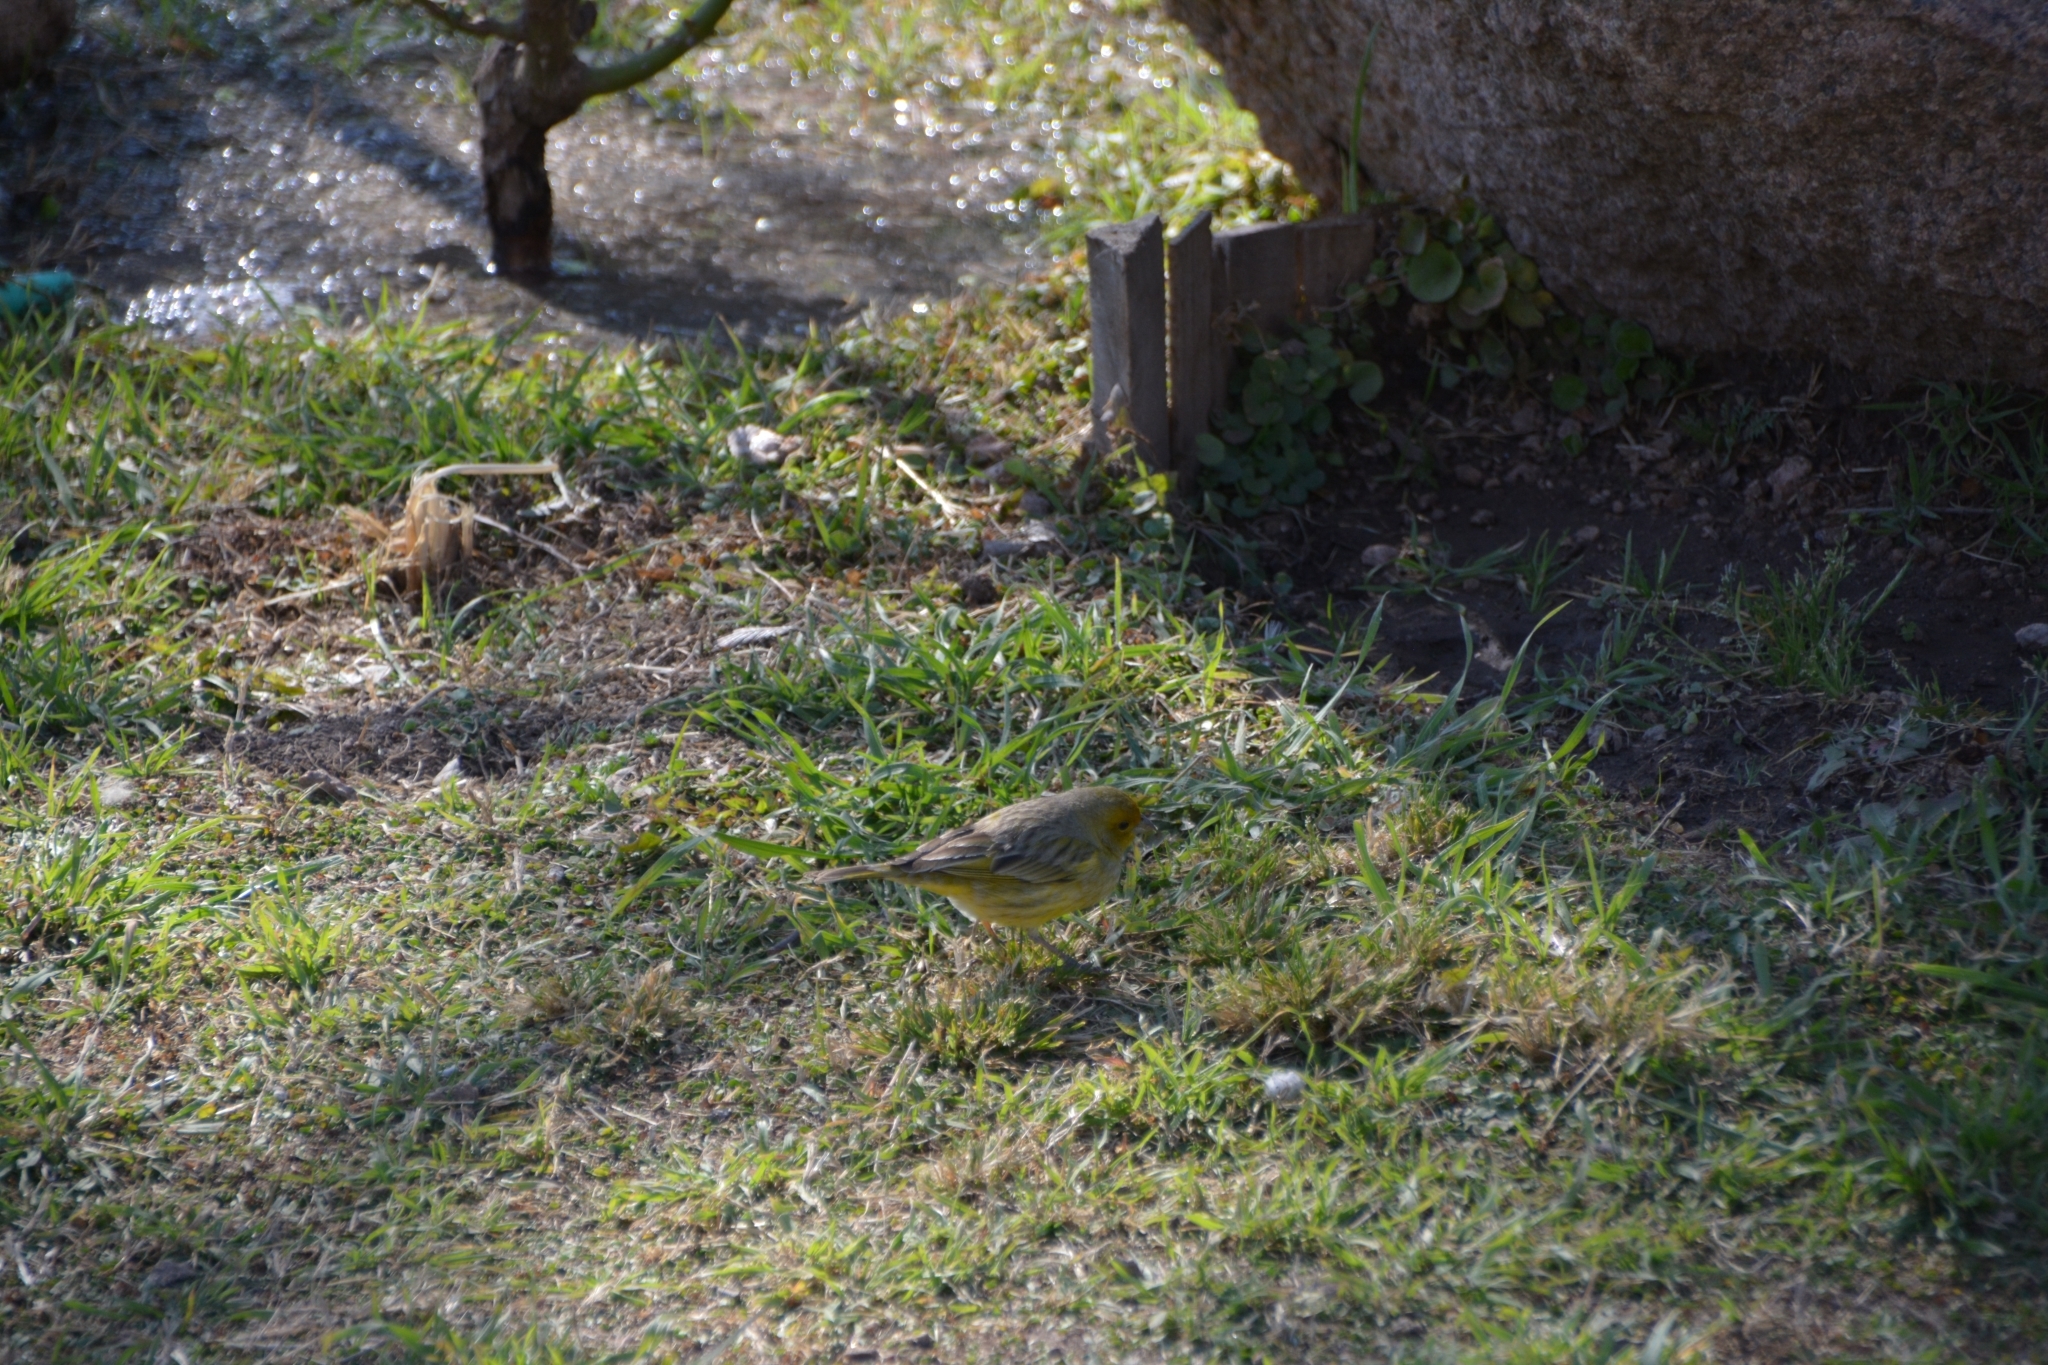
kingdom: Animalia
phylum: Chordata
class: Aves
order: Passeriformes
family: Thraupidae
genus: Sicalis
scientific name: Sicalis flaveola
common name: Saffron finch
